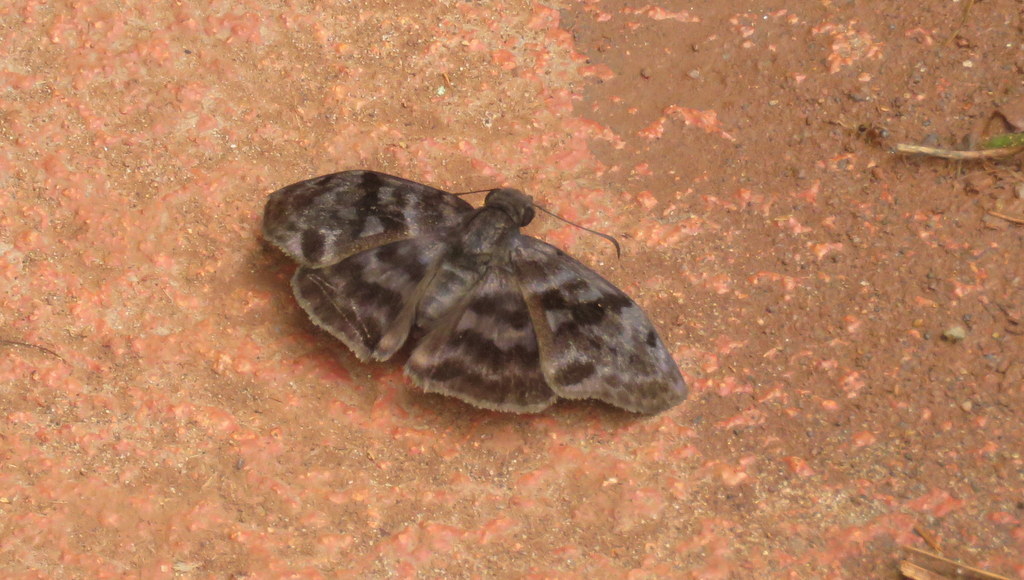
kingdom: Animalia
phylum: Arthropoda
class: Insecta
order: Lepidoptera
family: Hesperiidae
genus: Ebrietas
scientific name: Ebrietas anacreon
